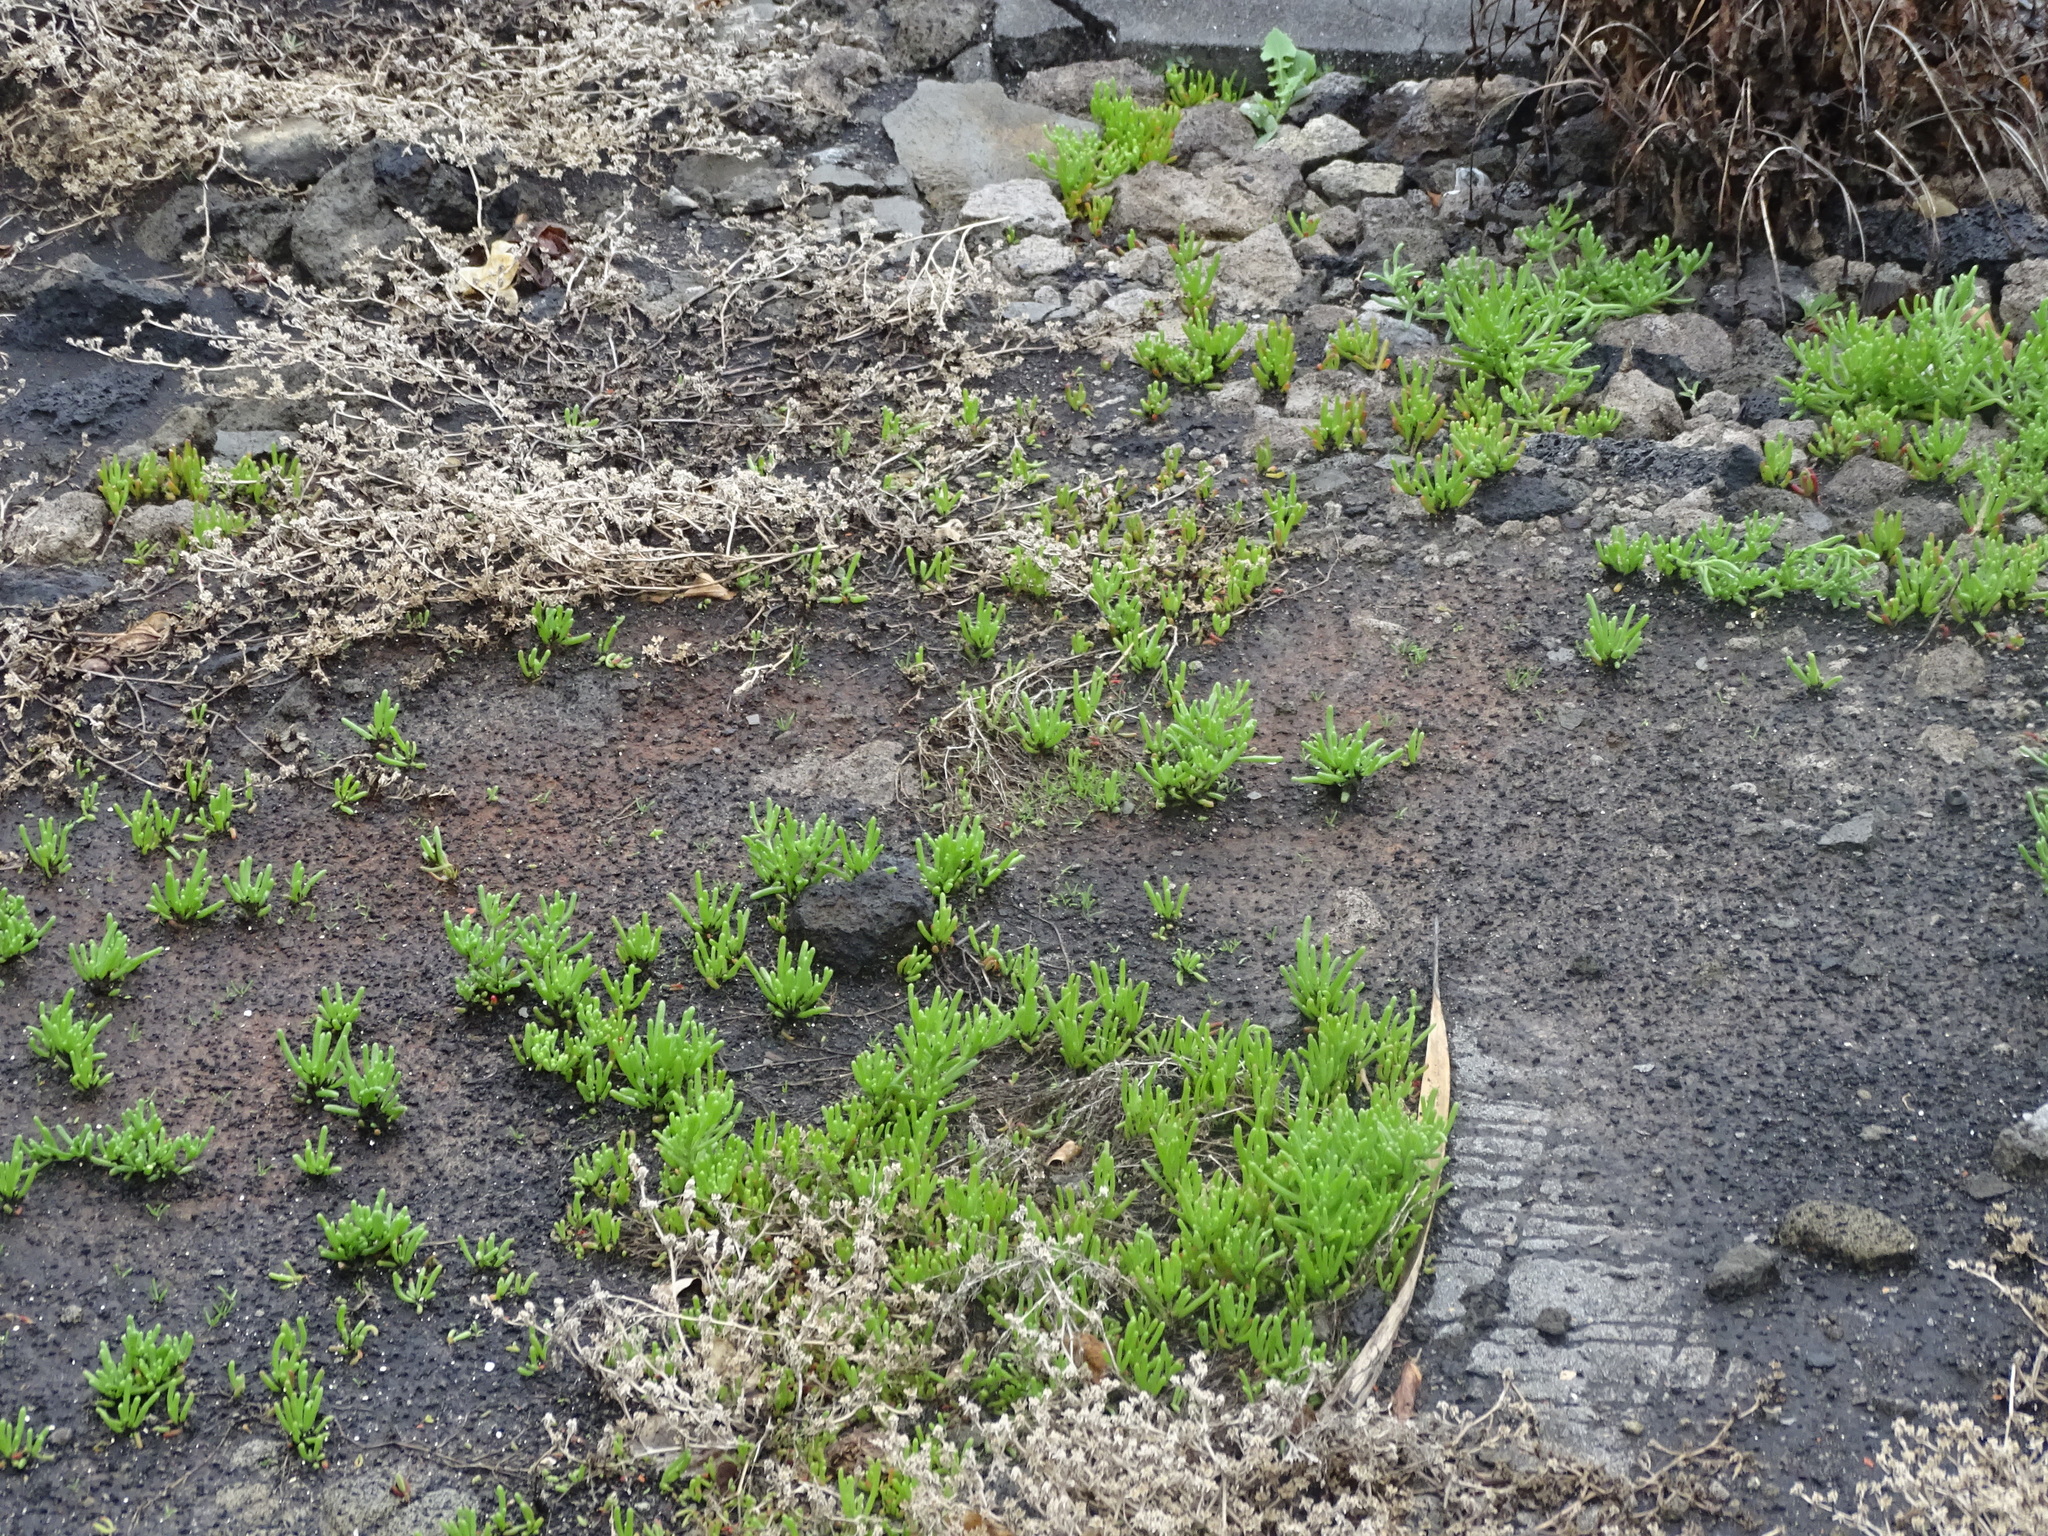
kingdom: Plantae
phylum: Tracheophyta
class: Magnoliopsida
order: Caryophyllales
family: Aizoaceae
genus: Mesembryanthemum
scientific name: Mesembryanthemum nodiflorum
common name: Slenderleaf iceplant
